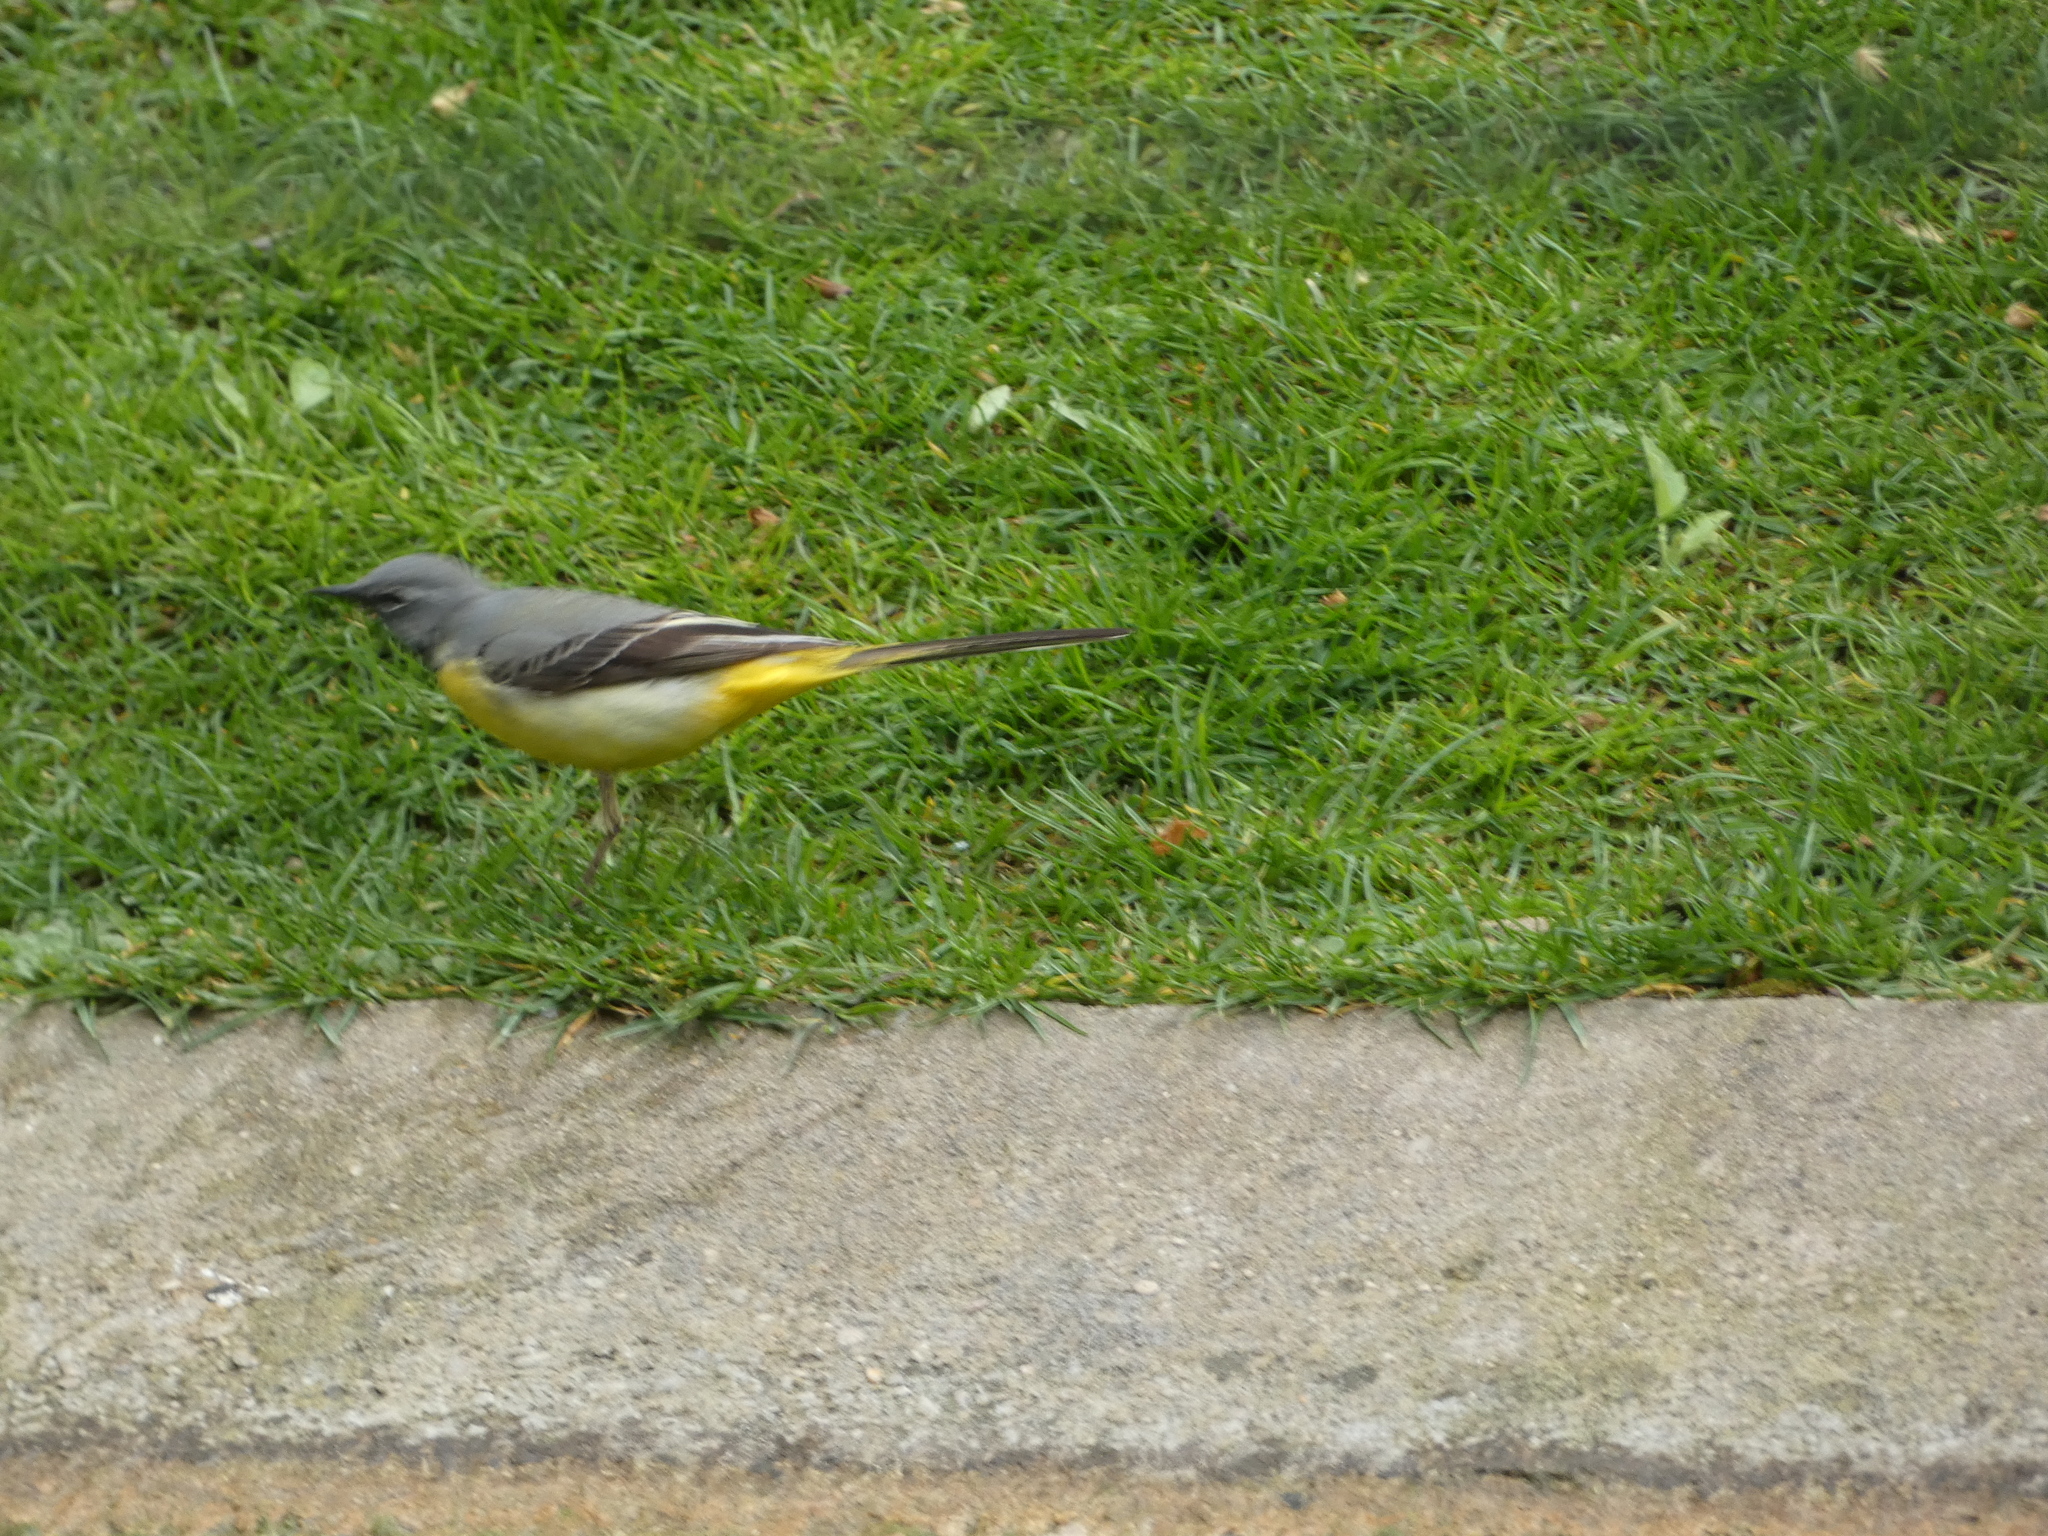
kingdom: Animalia
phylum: Chordata
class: Aves
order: Passeriformes
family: Motacillidae
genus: Motacilla
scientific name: Motacilla cinerea
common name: Grey wagtail
